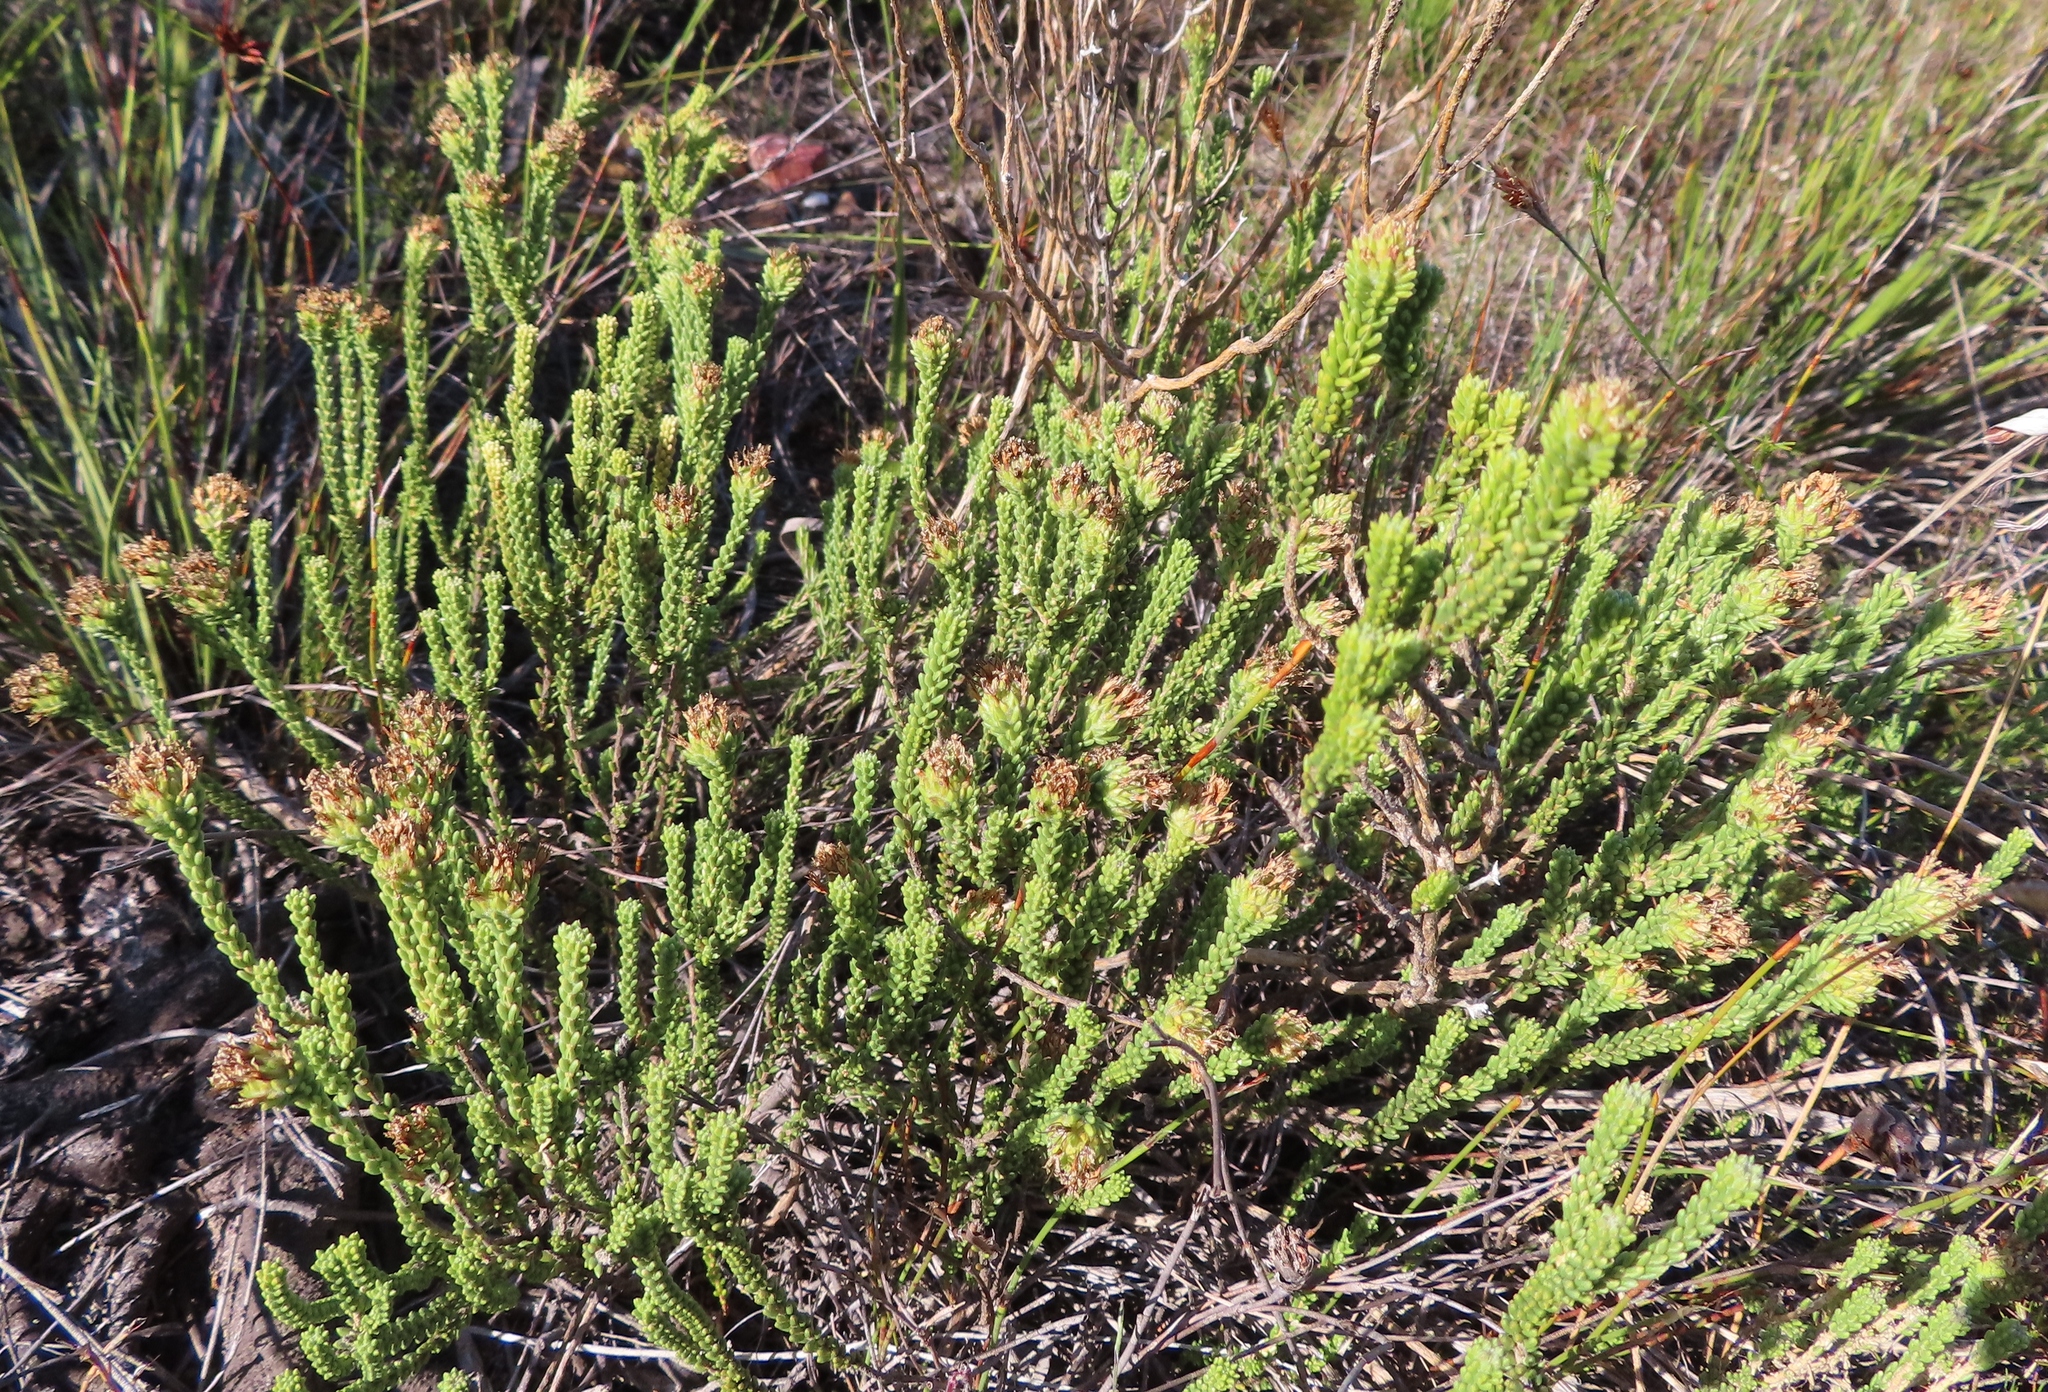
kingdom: Plantae
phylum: Tracheophyta
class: Magnoliopsida
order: Lamiales
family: Stilbaceae
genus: Campylostachys
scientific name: Campylostachys cernua
